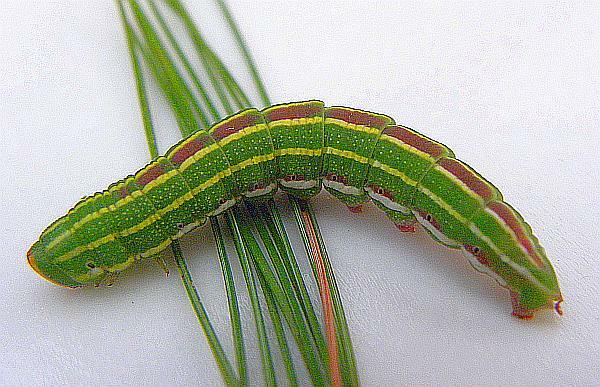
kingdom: Animalia
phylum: Arthropoda
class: Insecta
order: Lepidoptera
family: Sphingidae
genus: Lapara
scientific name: Lapara bombycoides
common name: Northern pine sphinx
